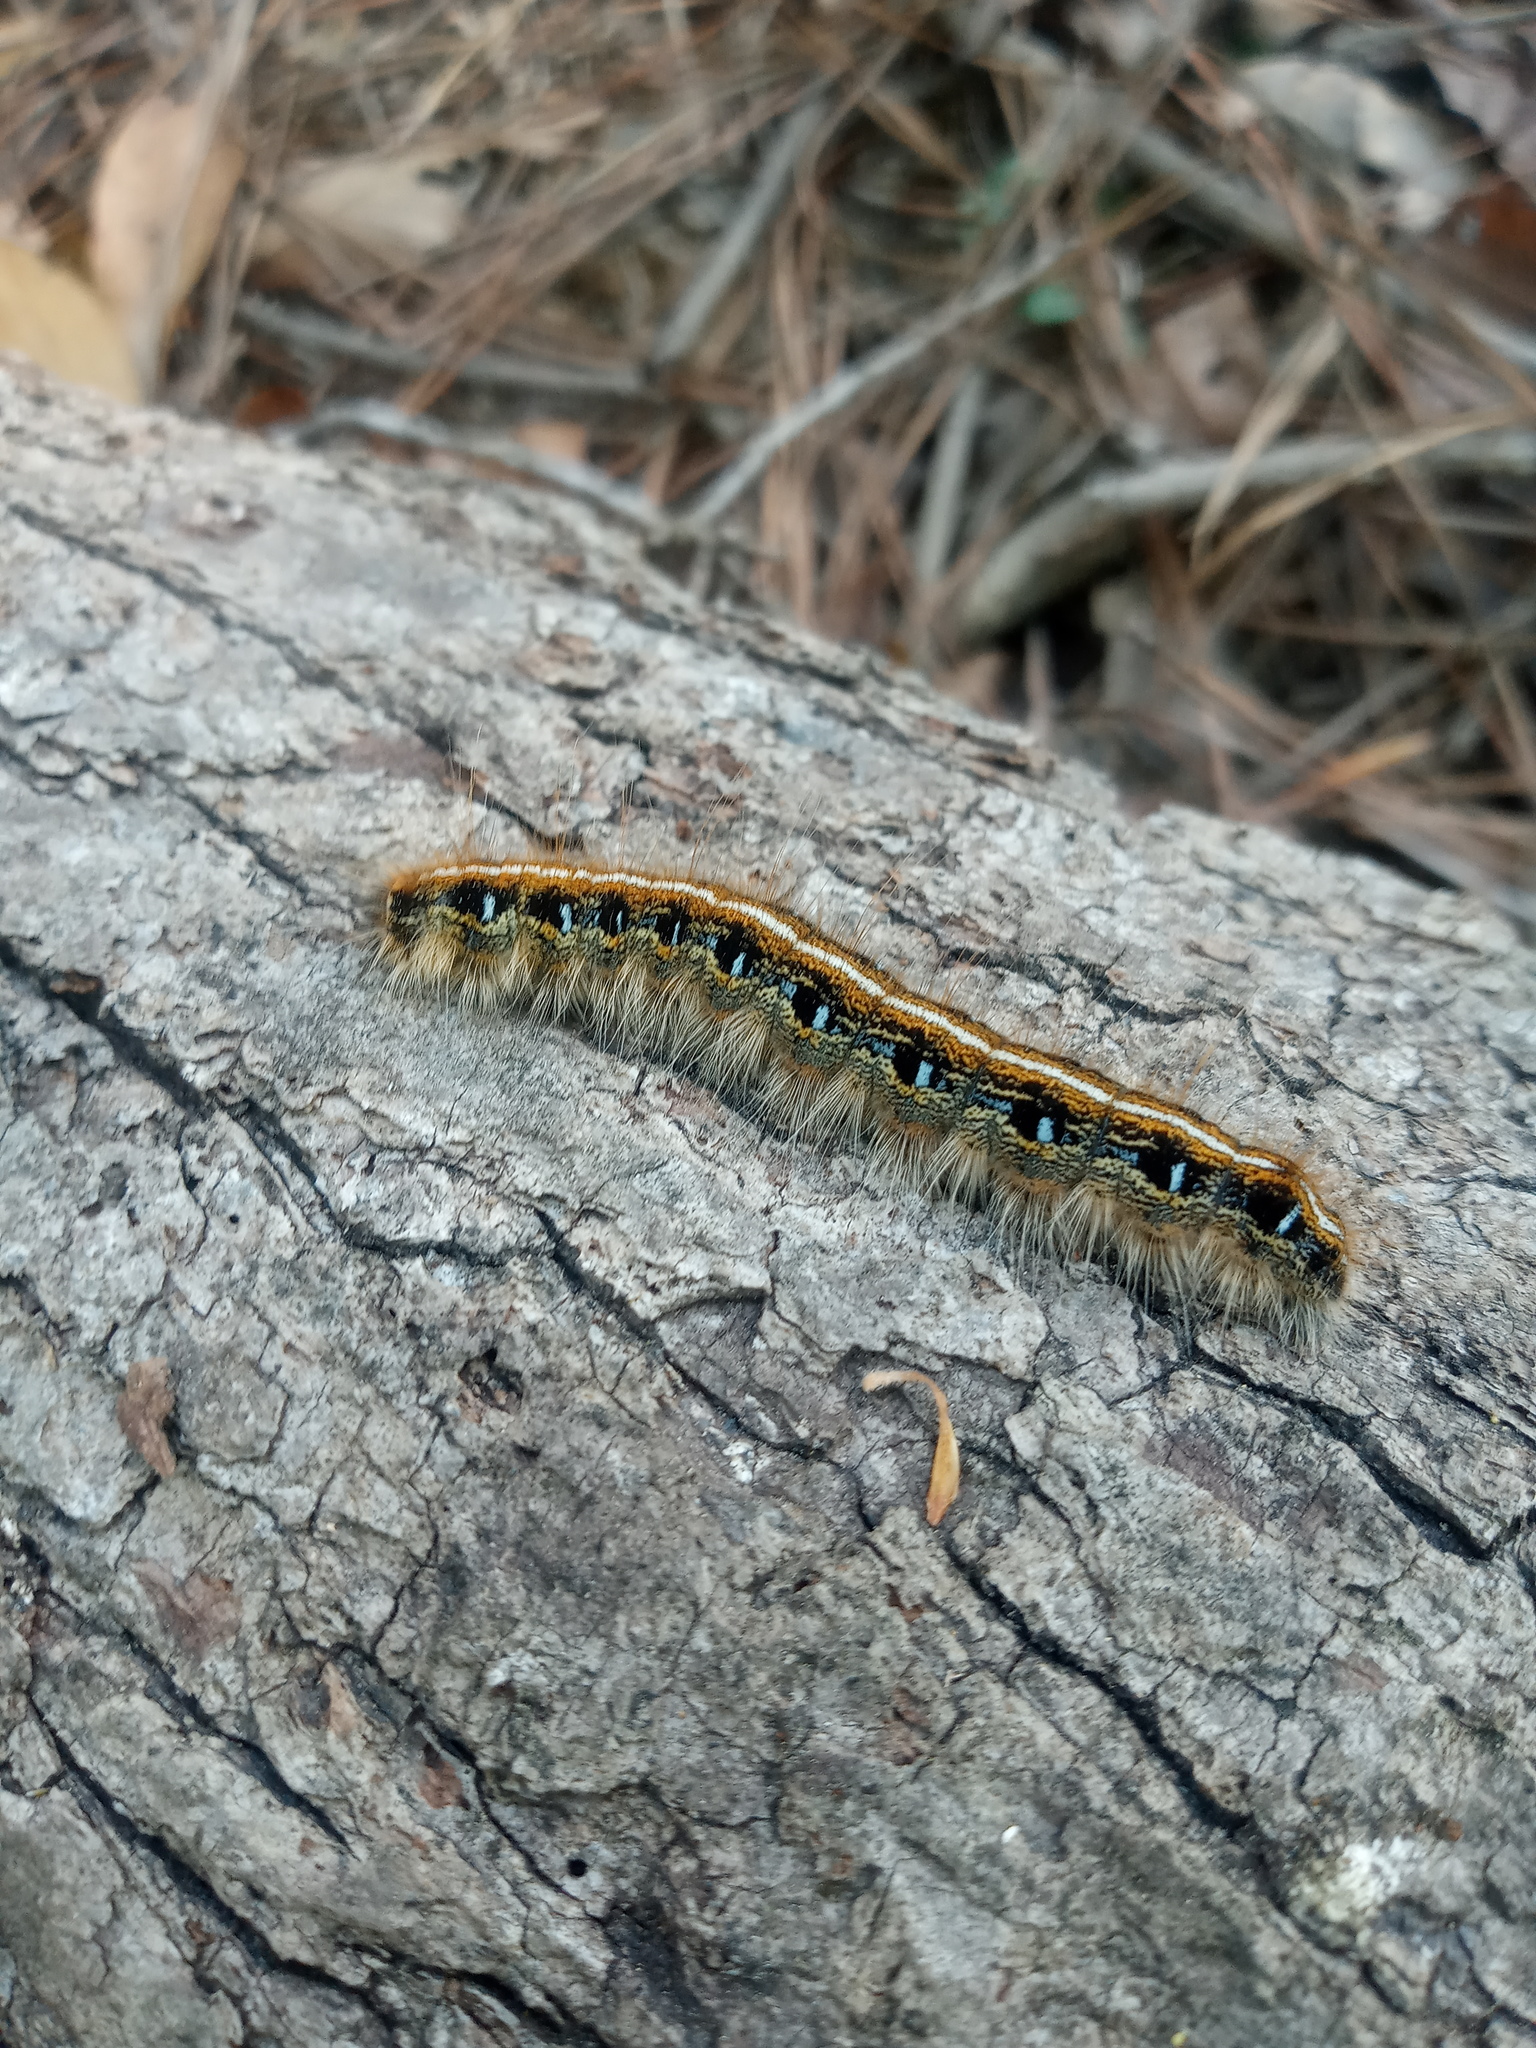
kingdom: Animalia
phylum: Arthropoda
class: Insecta
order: Lepidoptera
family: Lasiocampidae
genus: Malacosoma
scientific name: Malacosoma americana
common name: Eastern tent caterpillar moth
